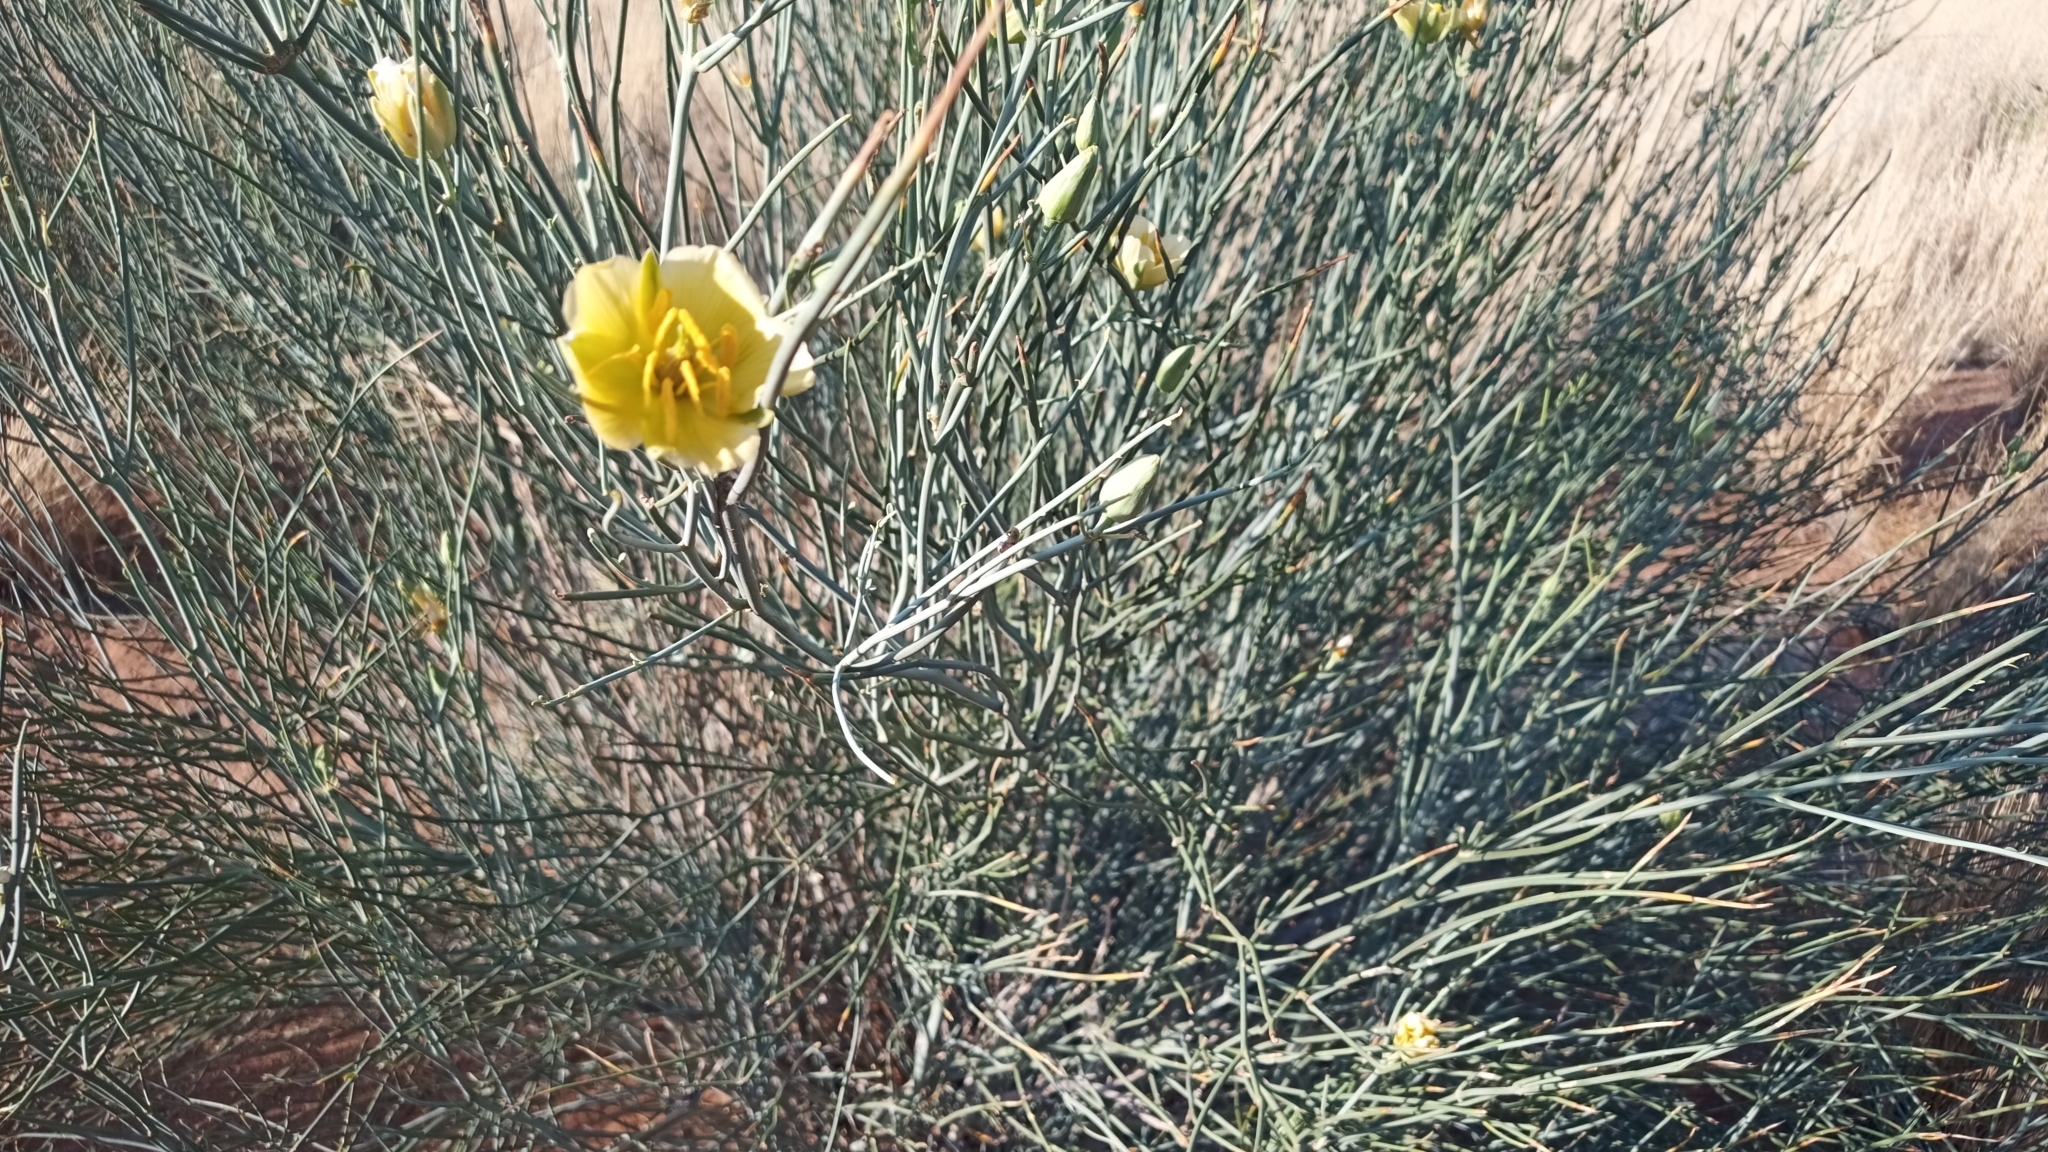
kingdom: Plantae
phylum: Tracheophyta
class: Magnoliopsida
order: Zygophyllales
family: Zygophyllaceae
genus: Sisyndite
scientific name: Sisyndite spartea
